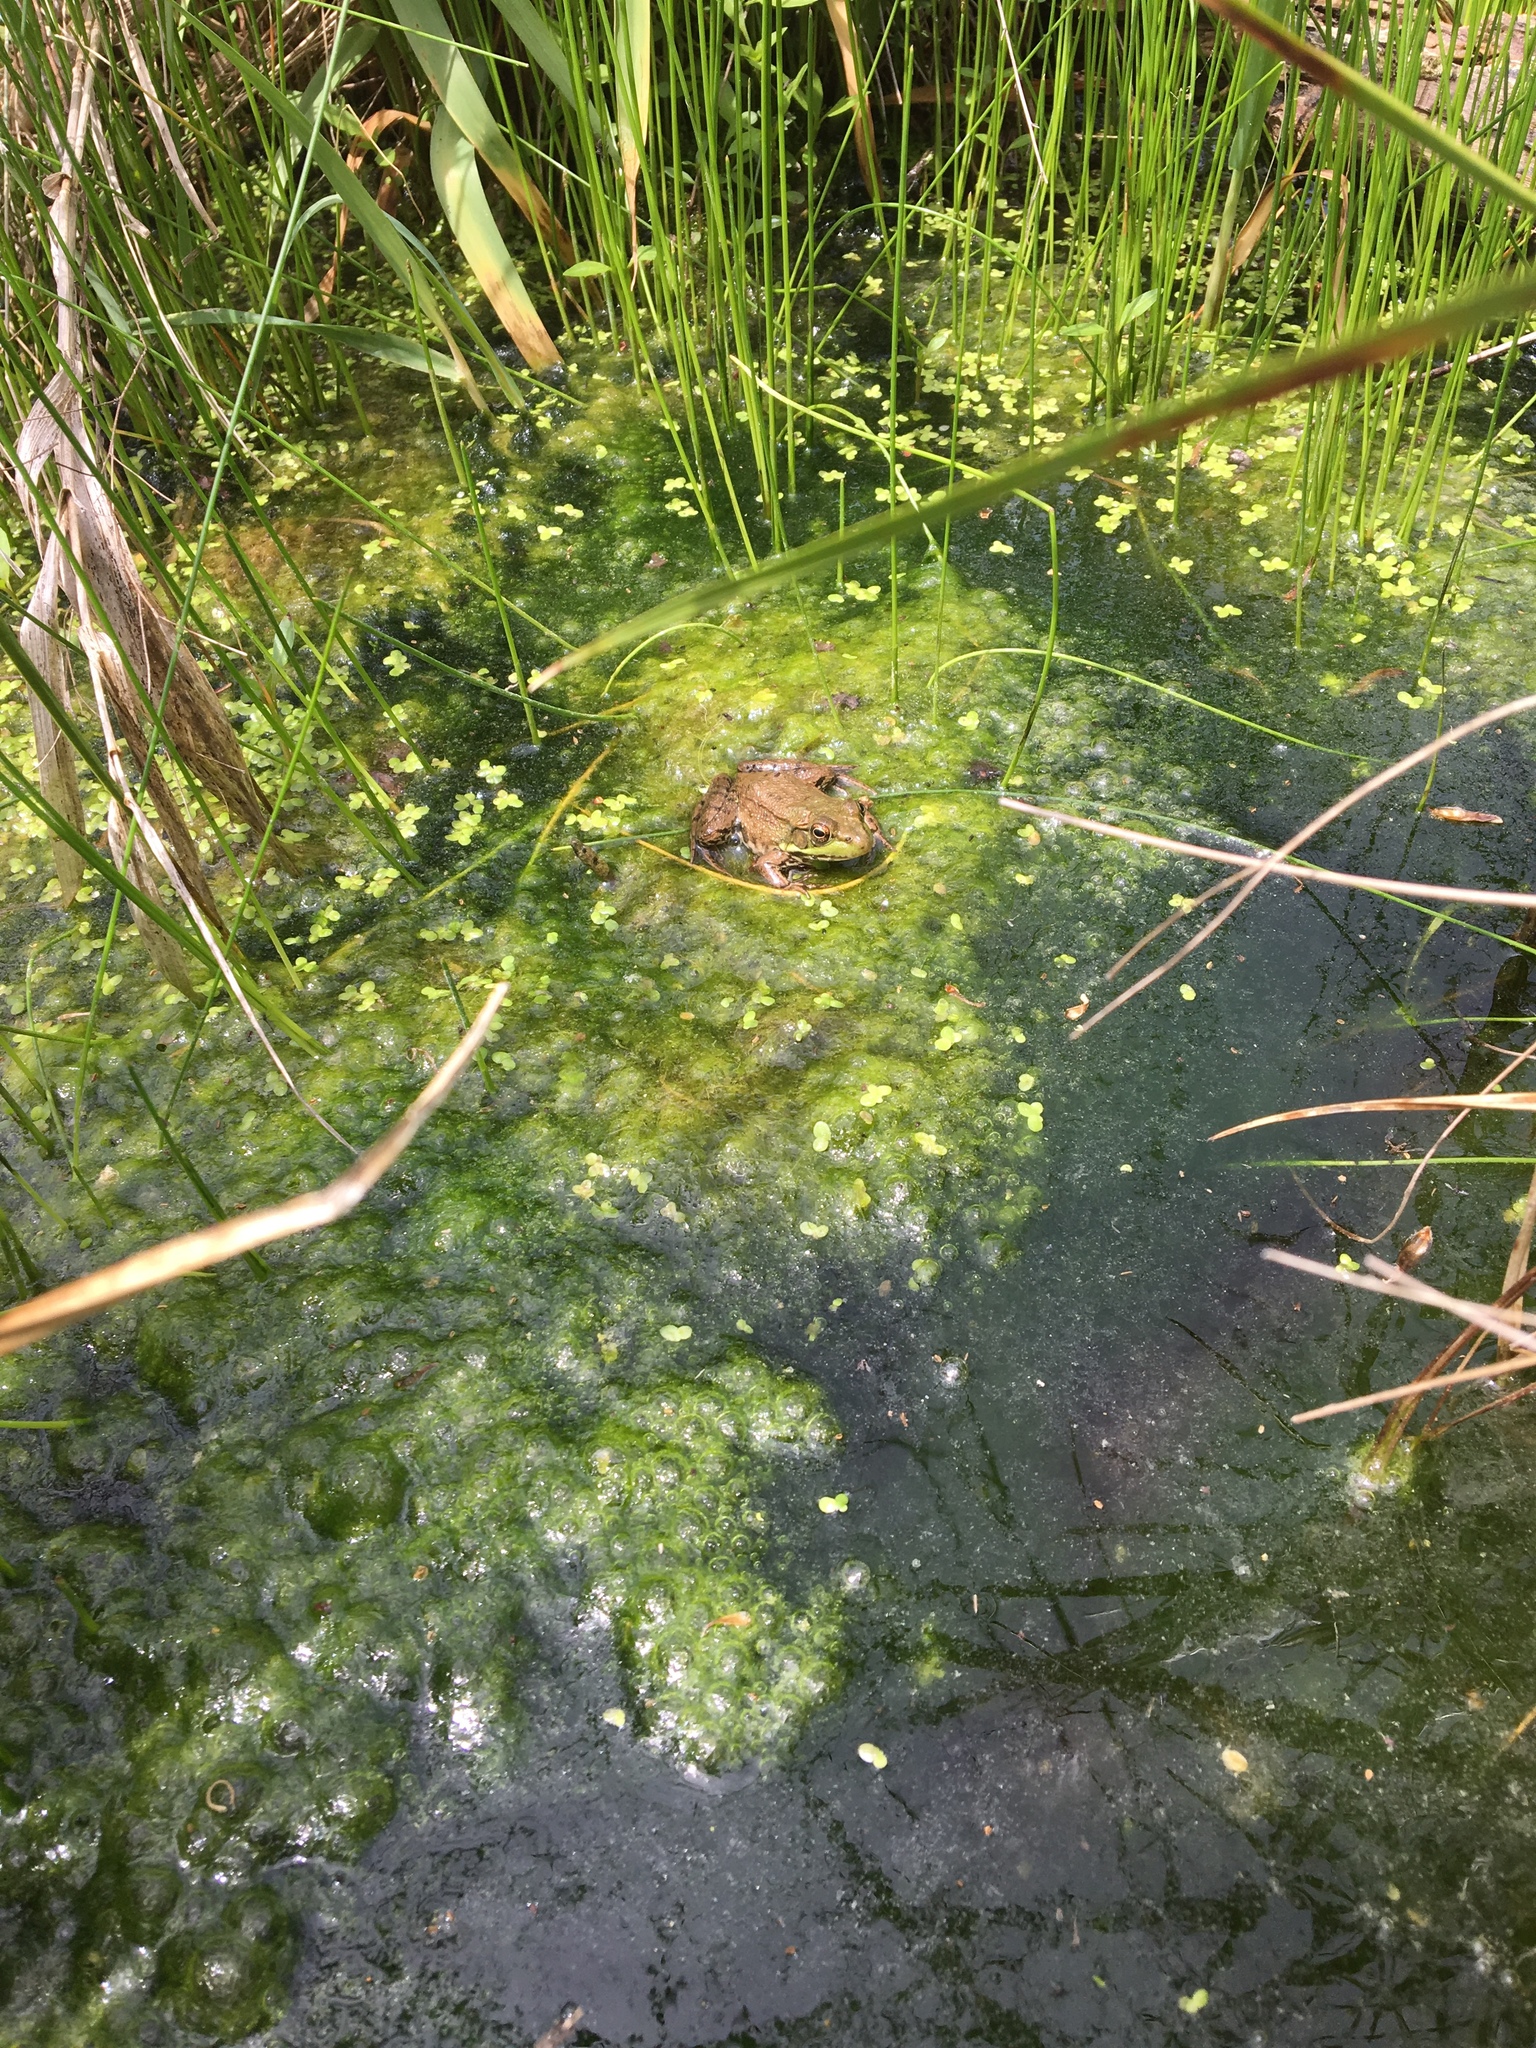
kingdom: Animalia
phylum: Chordata
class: Amphibia
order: Anura
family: Ranidae
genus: Lithobates
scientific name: Lithobates clamitans
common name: Green frog
